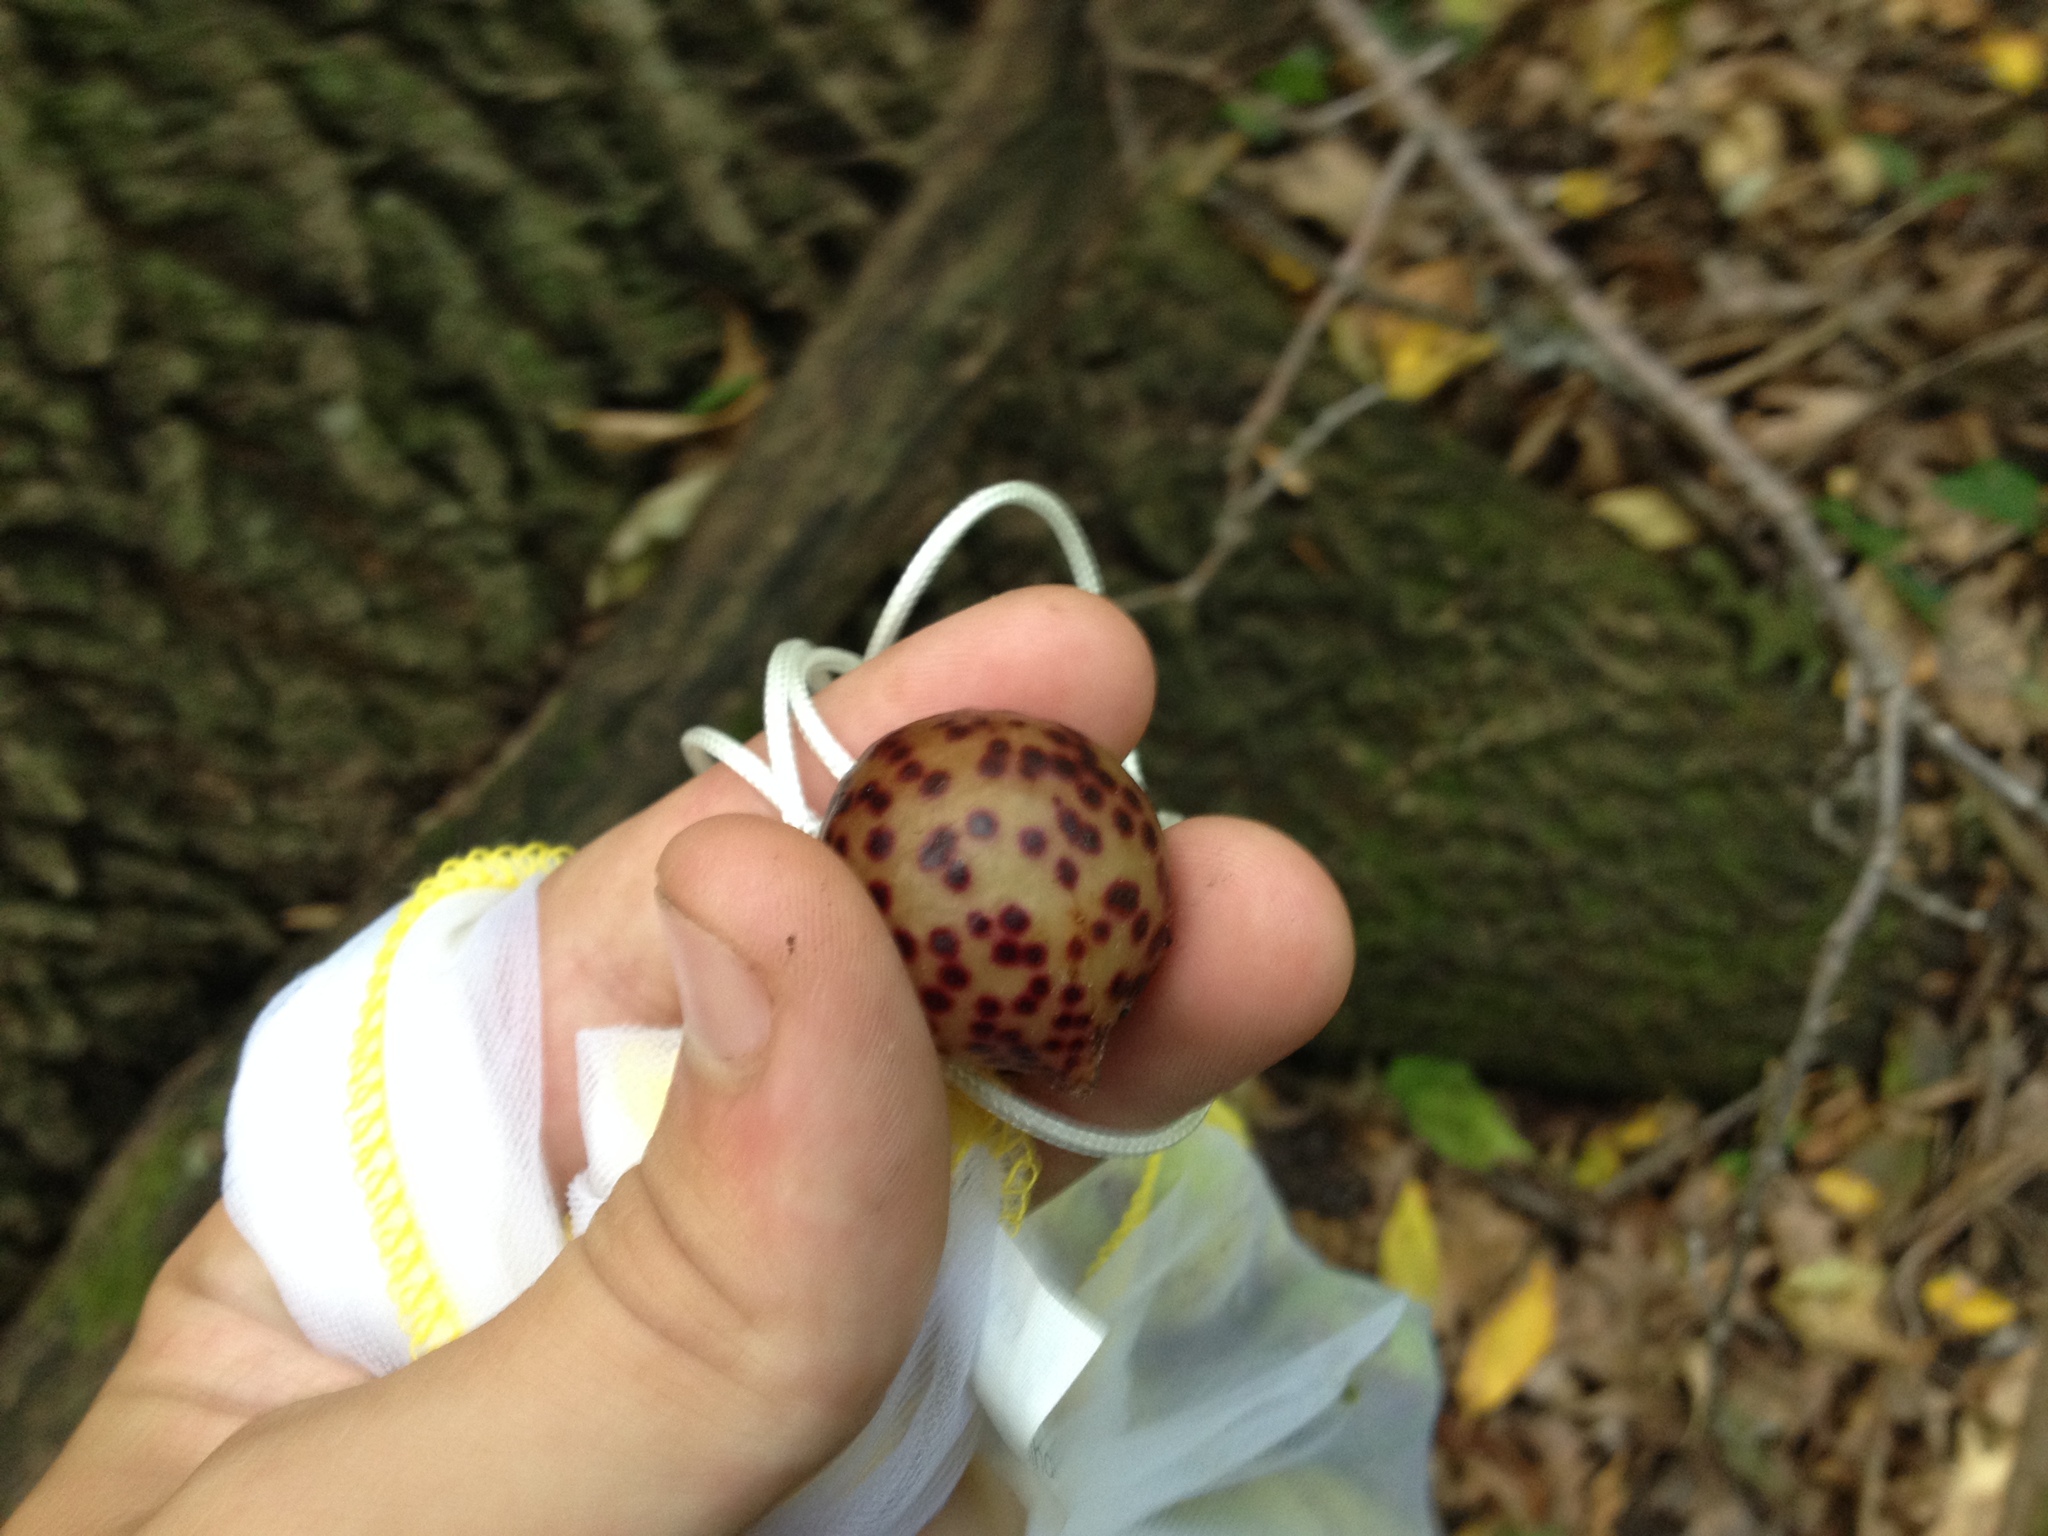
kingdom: Animalia
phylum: Arthropoda
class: Insecta
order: Hymenoptera
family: Cynipidae
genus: Amphibolips
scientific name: Amphibolips
